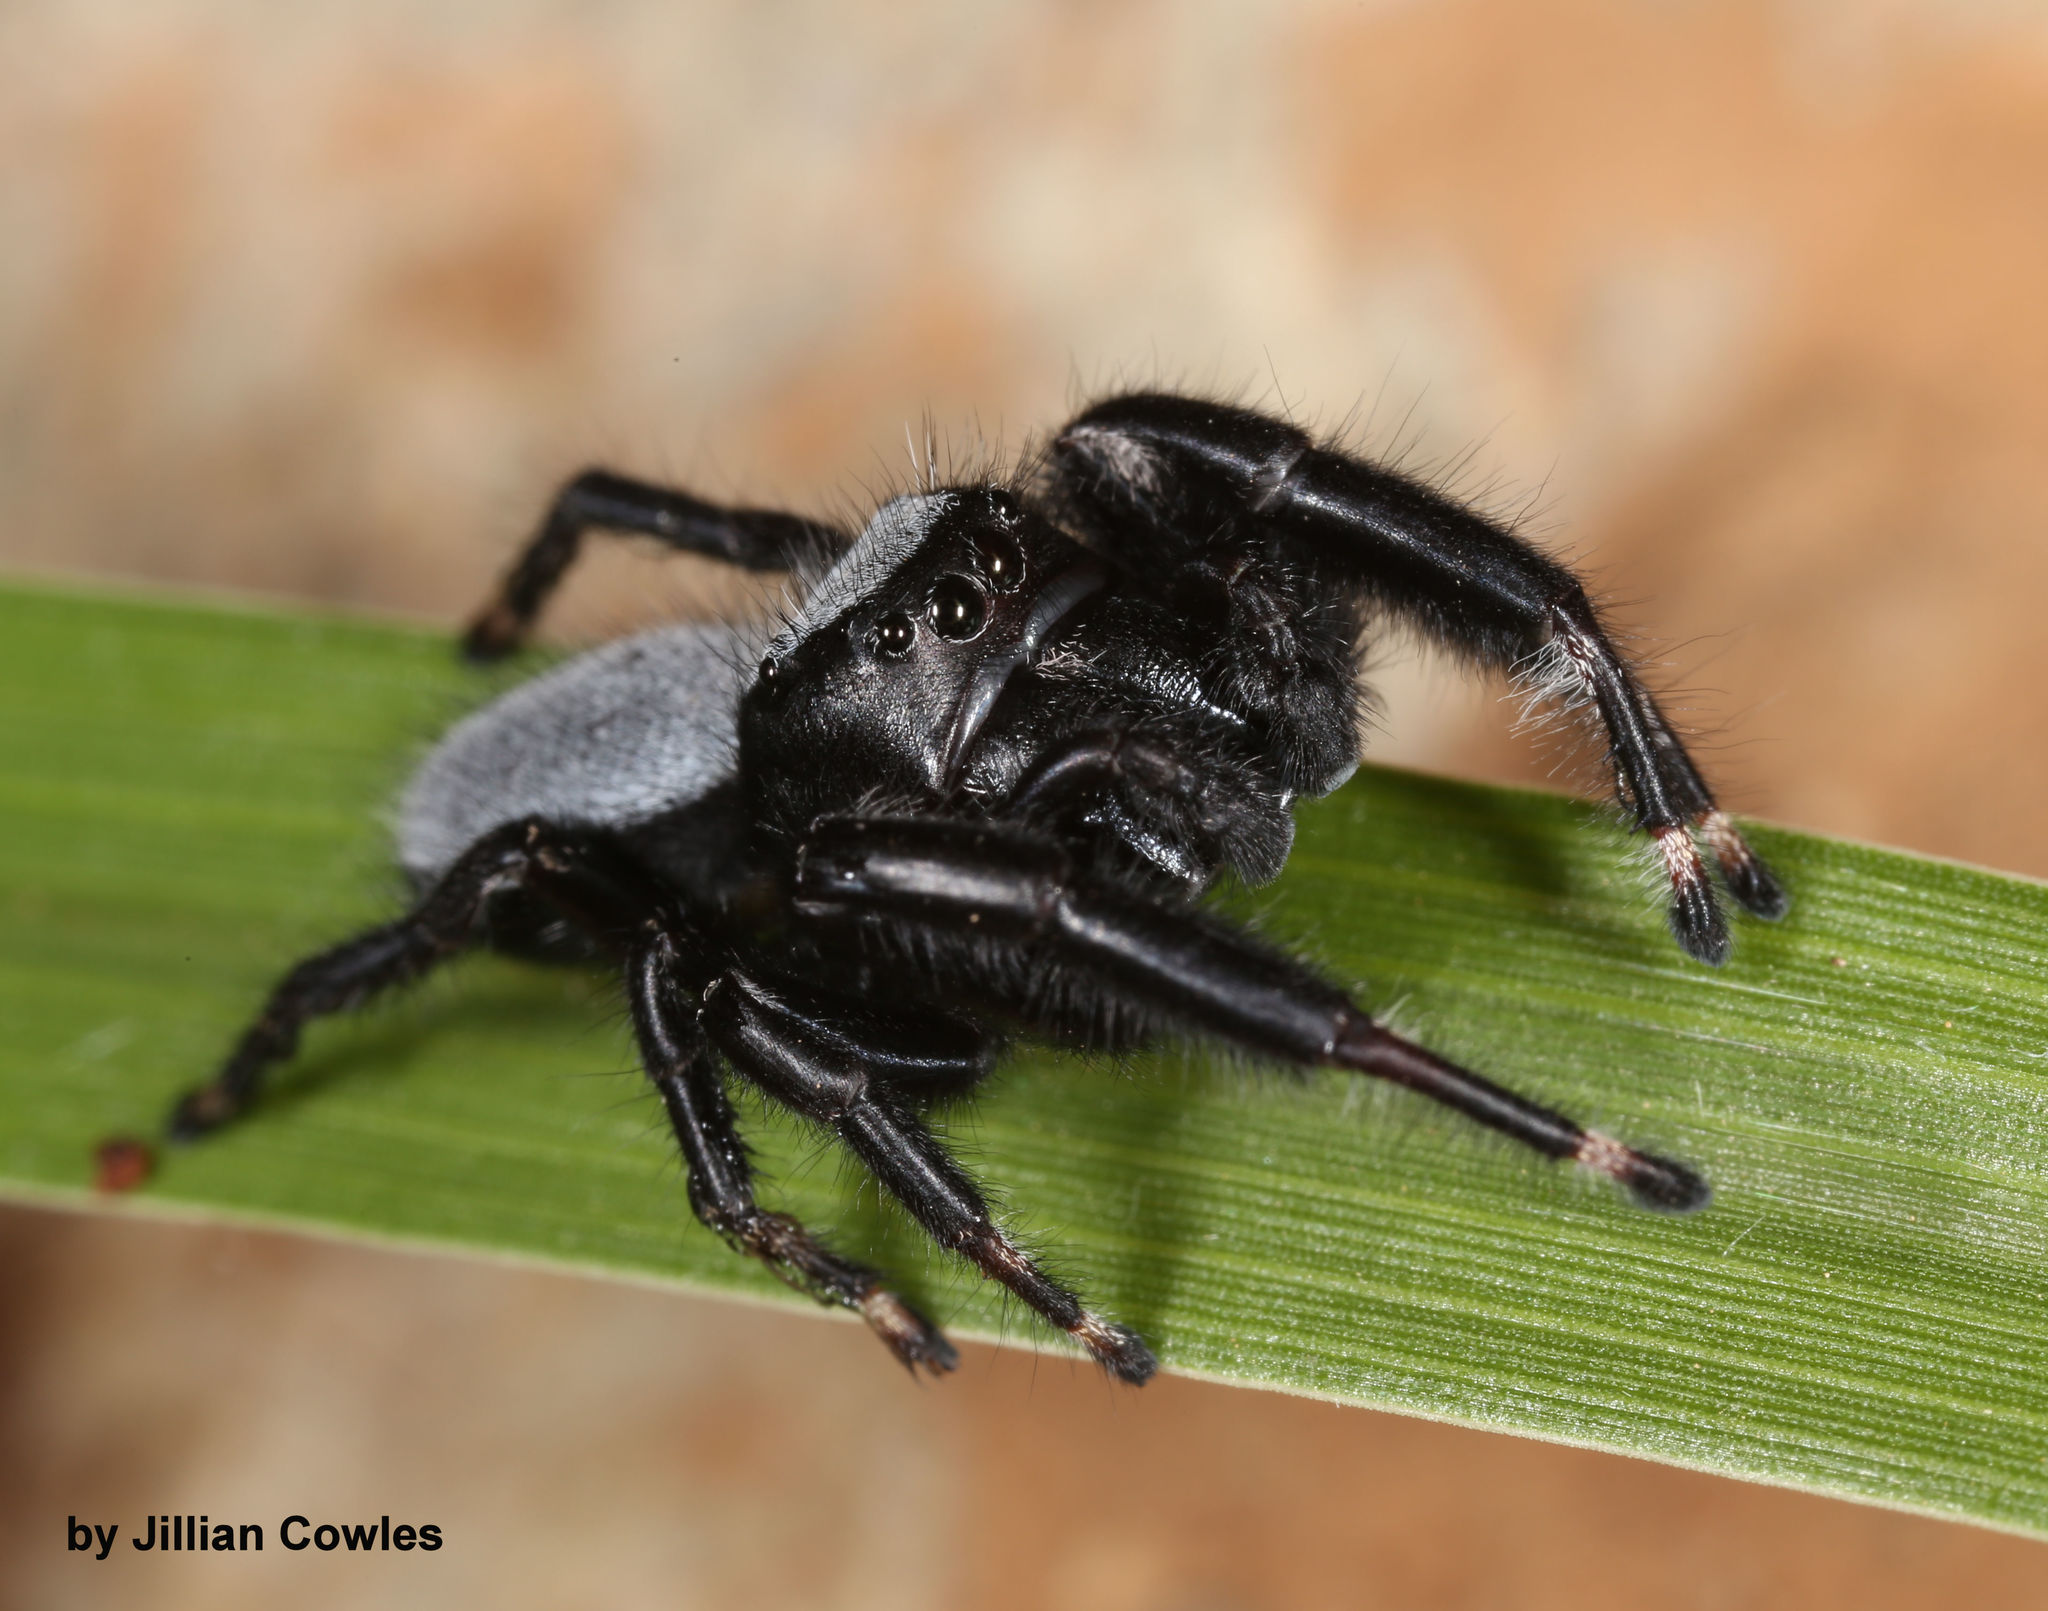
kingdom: Animalia
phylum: Arthropoda
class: Arachnida
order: Araneae
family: Salticidae
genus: Phidippus
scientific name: Phidippus octopunctatus
